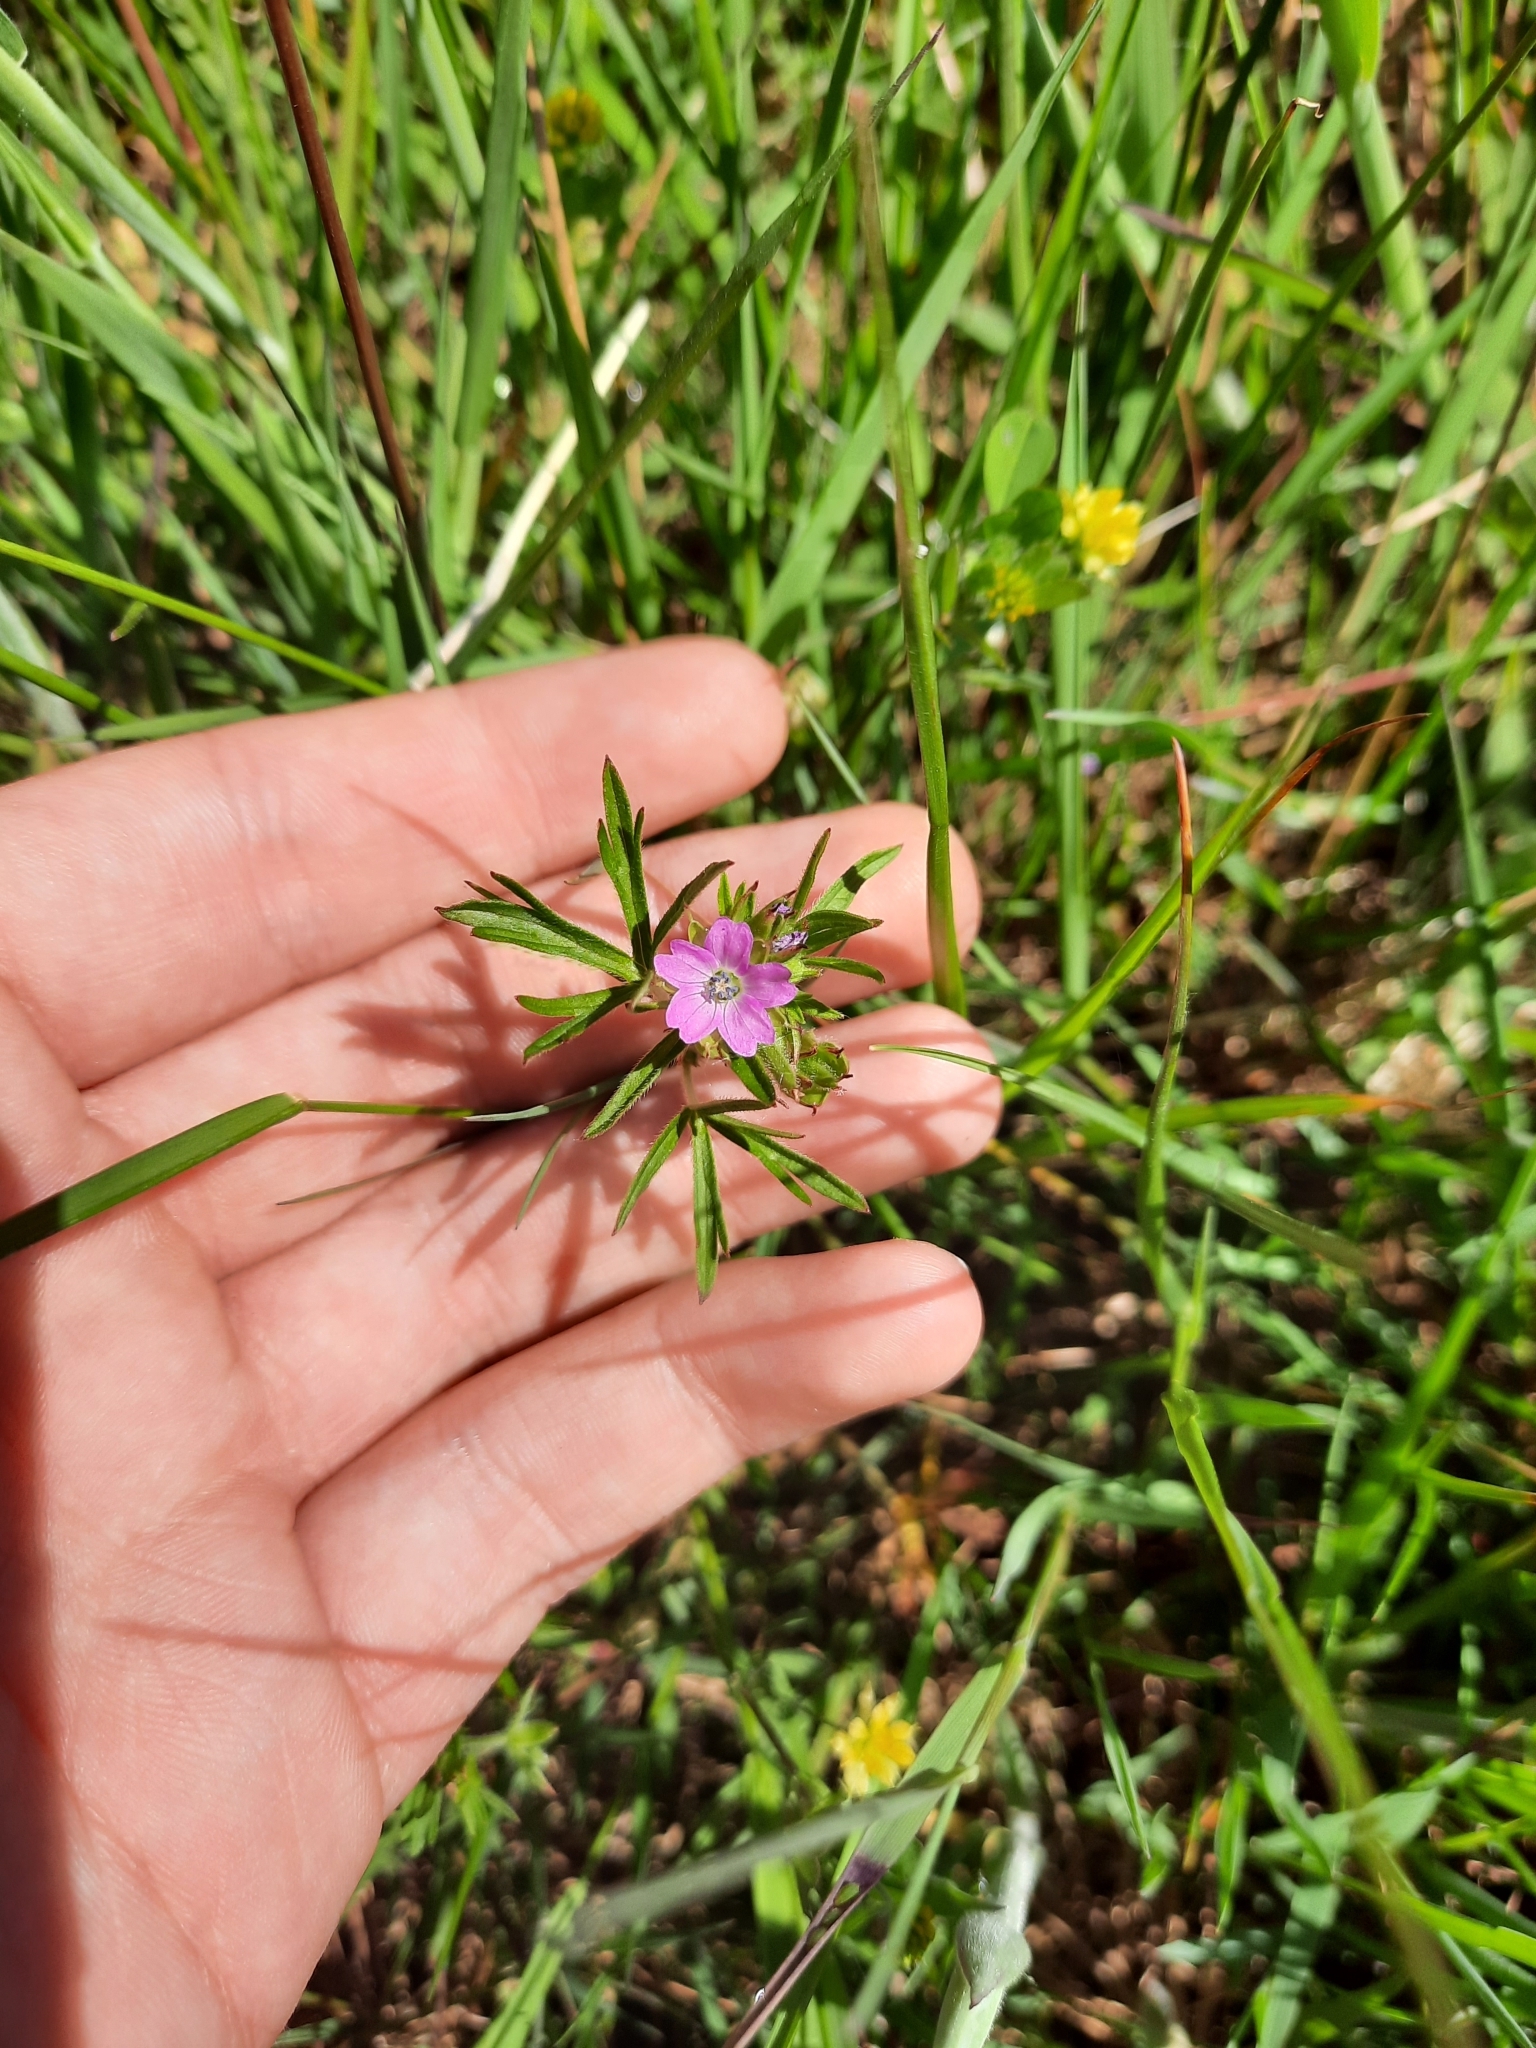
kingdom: Plantae
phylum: Tracheophyta
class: Magnoliopsida
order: Geraniales
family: Geraniaceae
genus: Geranium
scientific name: Geranium dissectum
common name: Cut-leaved crane's-bill
